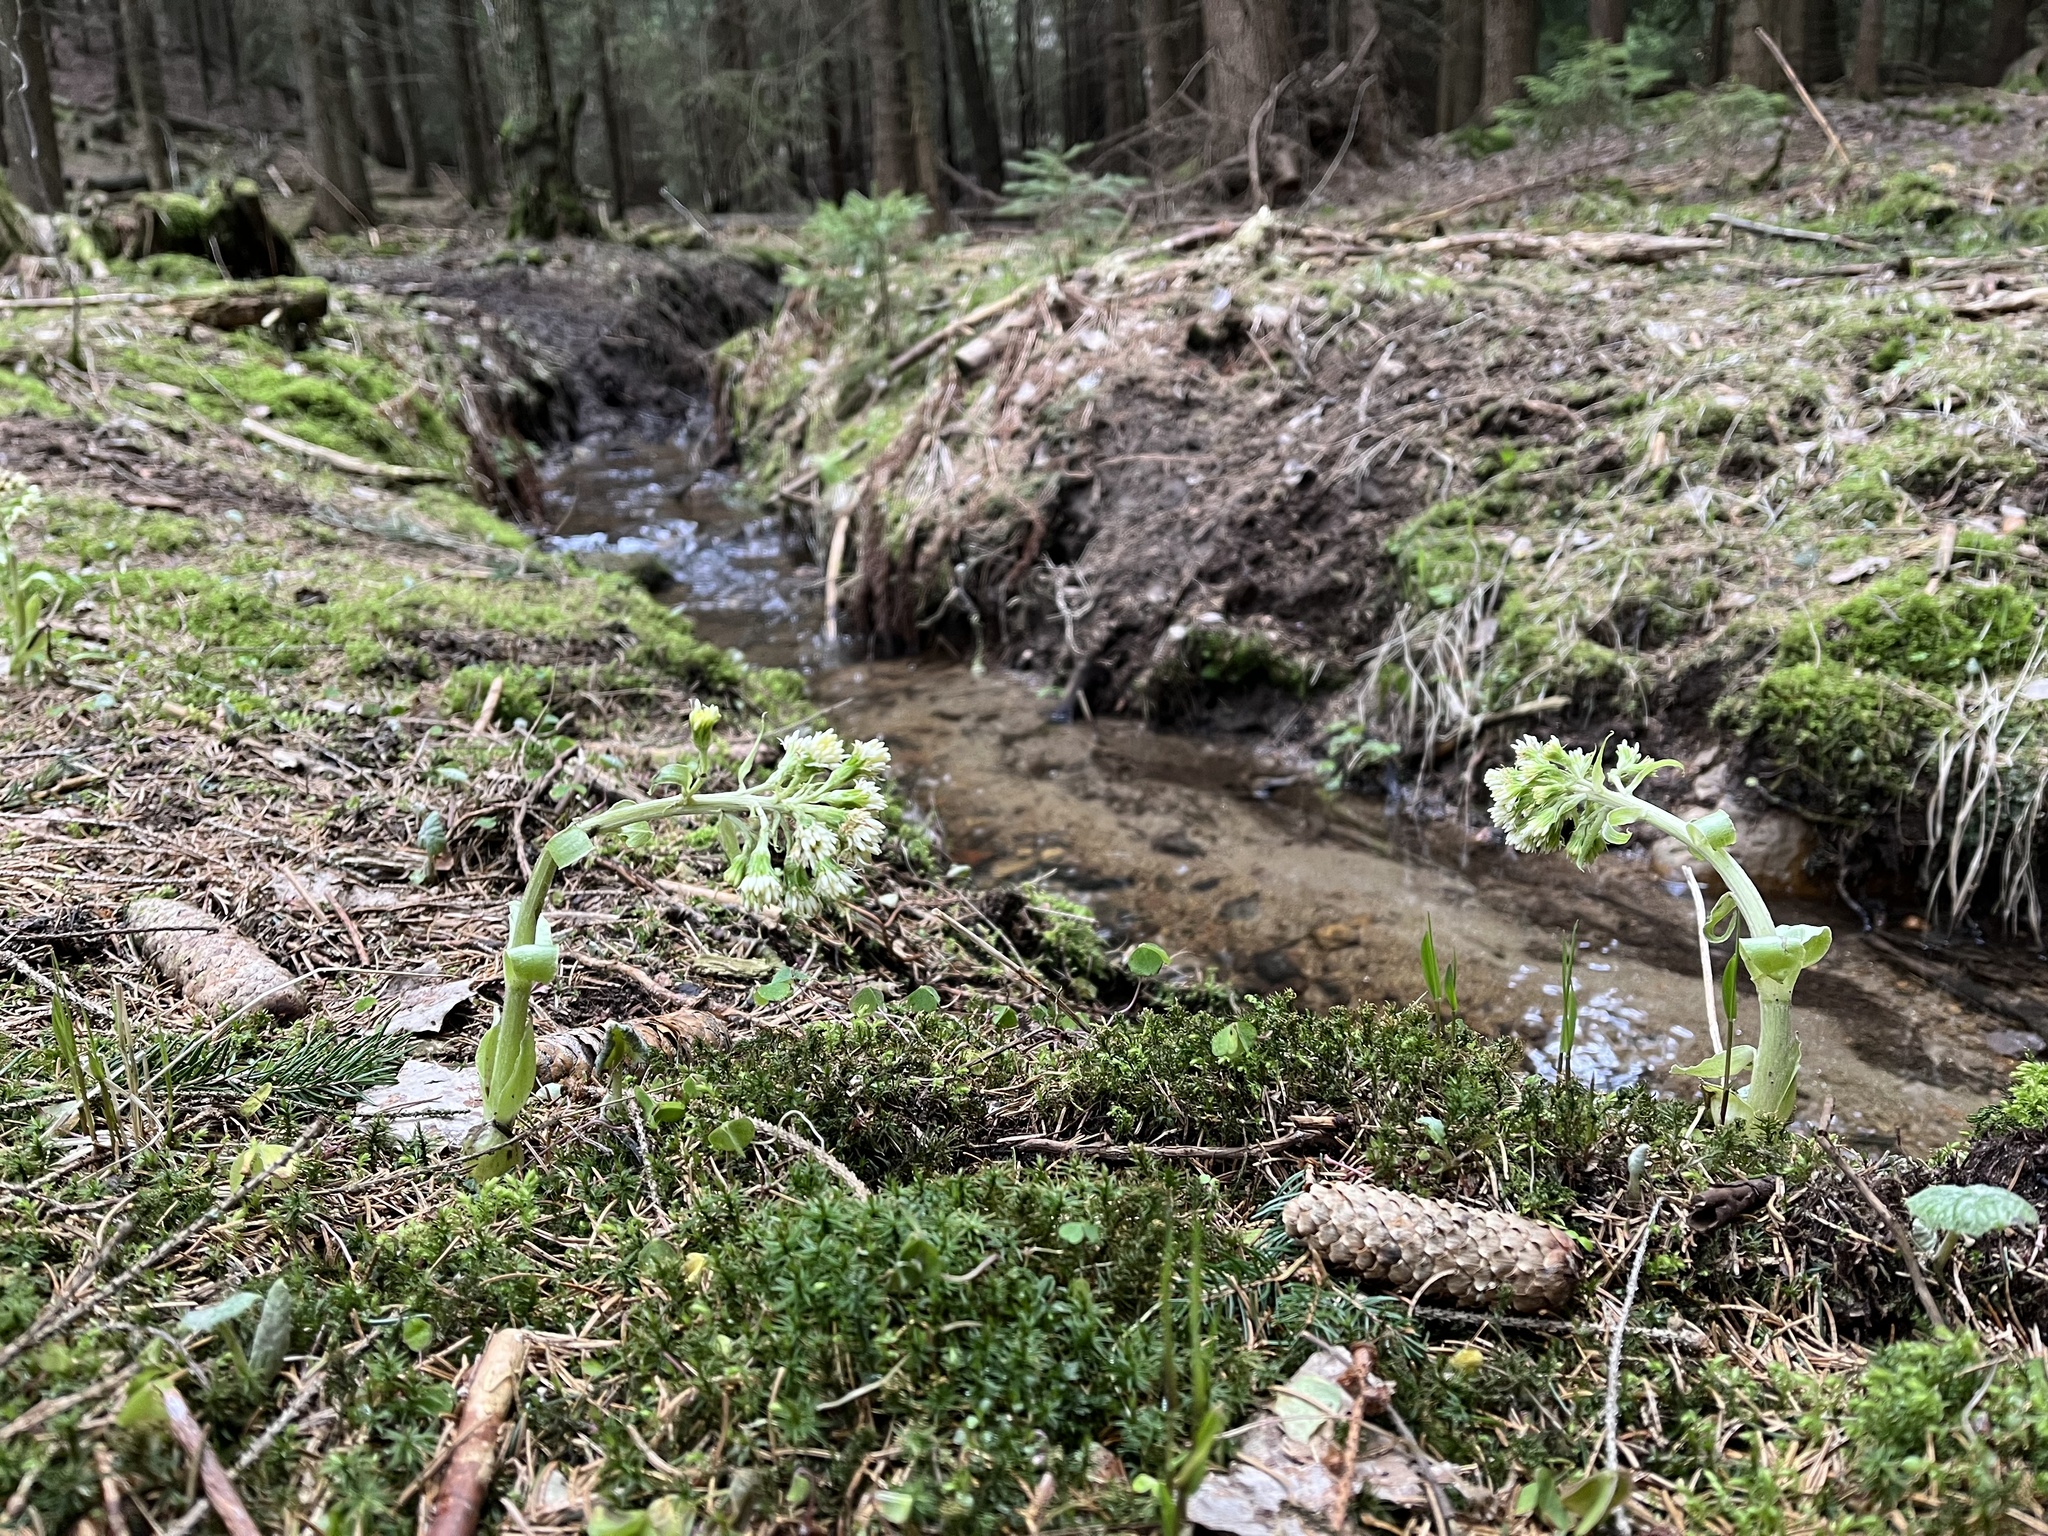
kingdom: Plantae
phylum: Tracheophyta
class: Magnoliopsida
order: Asterales
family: Asteraceae
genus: Petasites
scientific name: Petasites albus
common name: White butterbur
